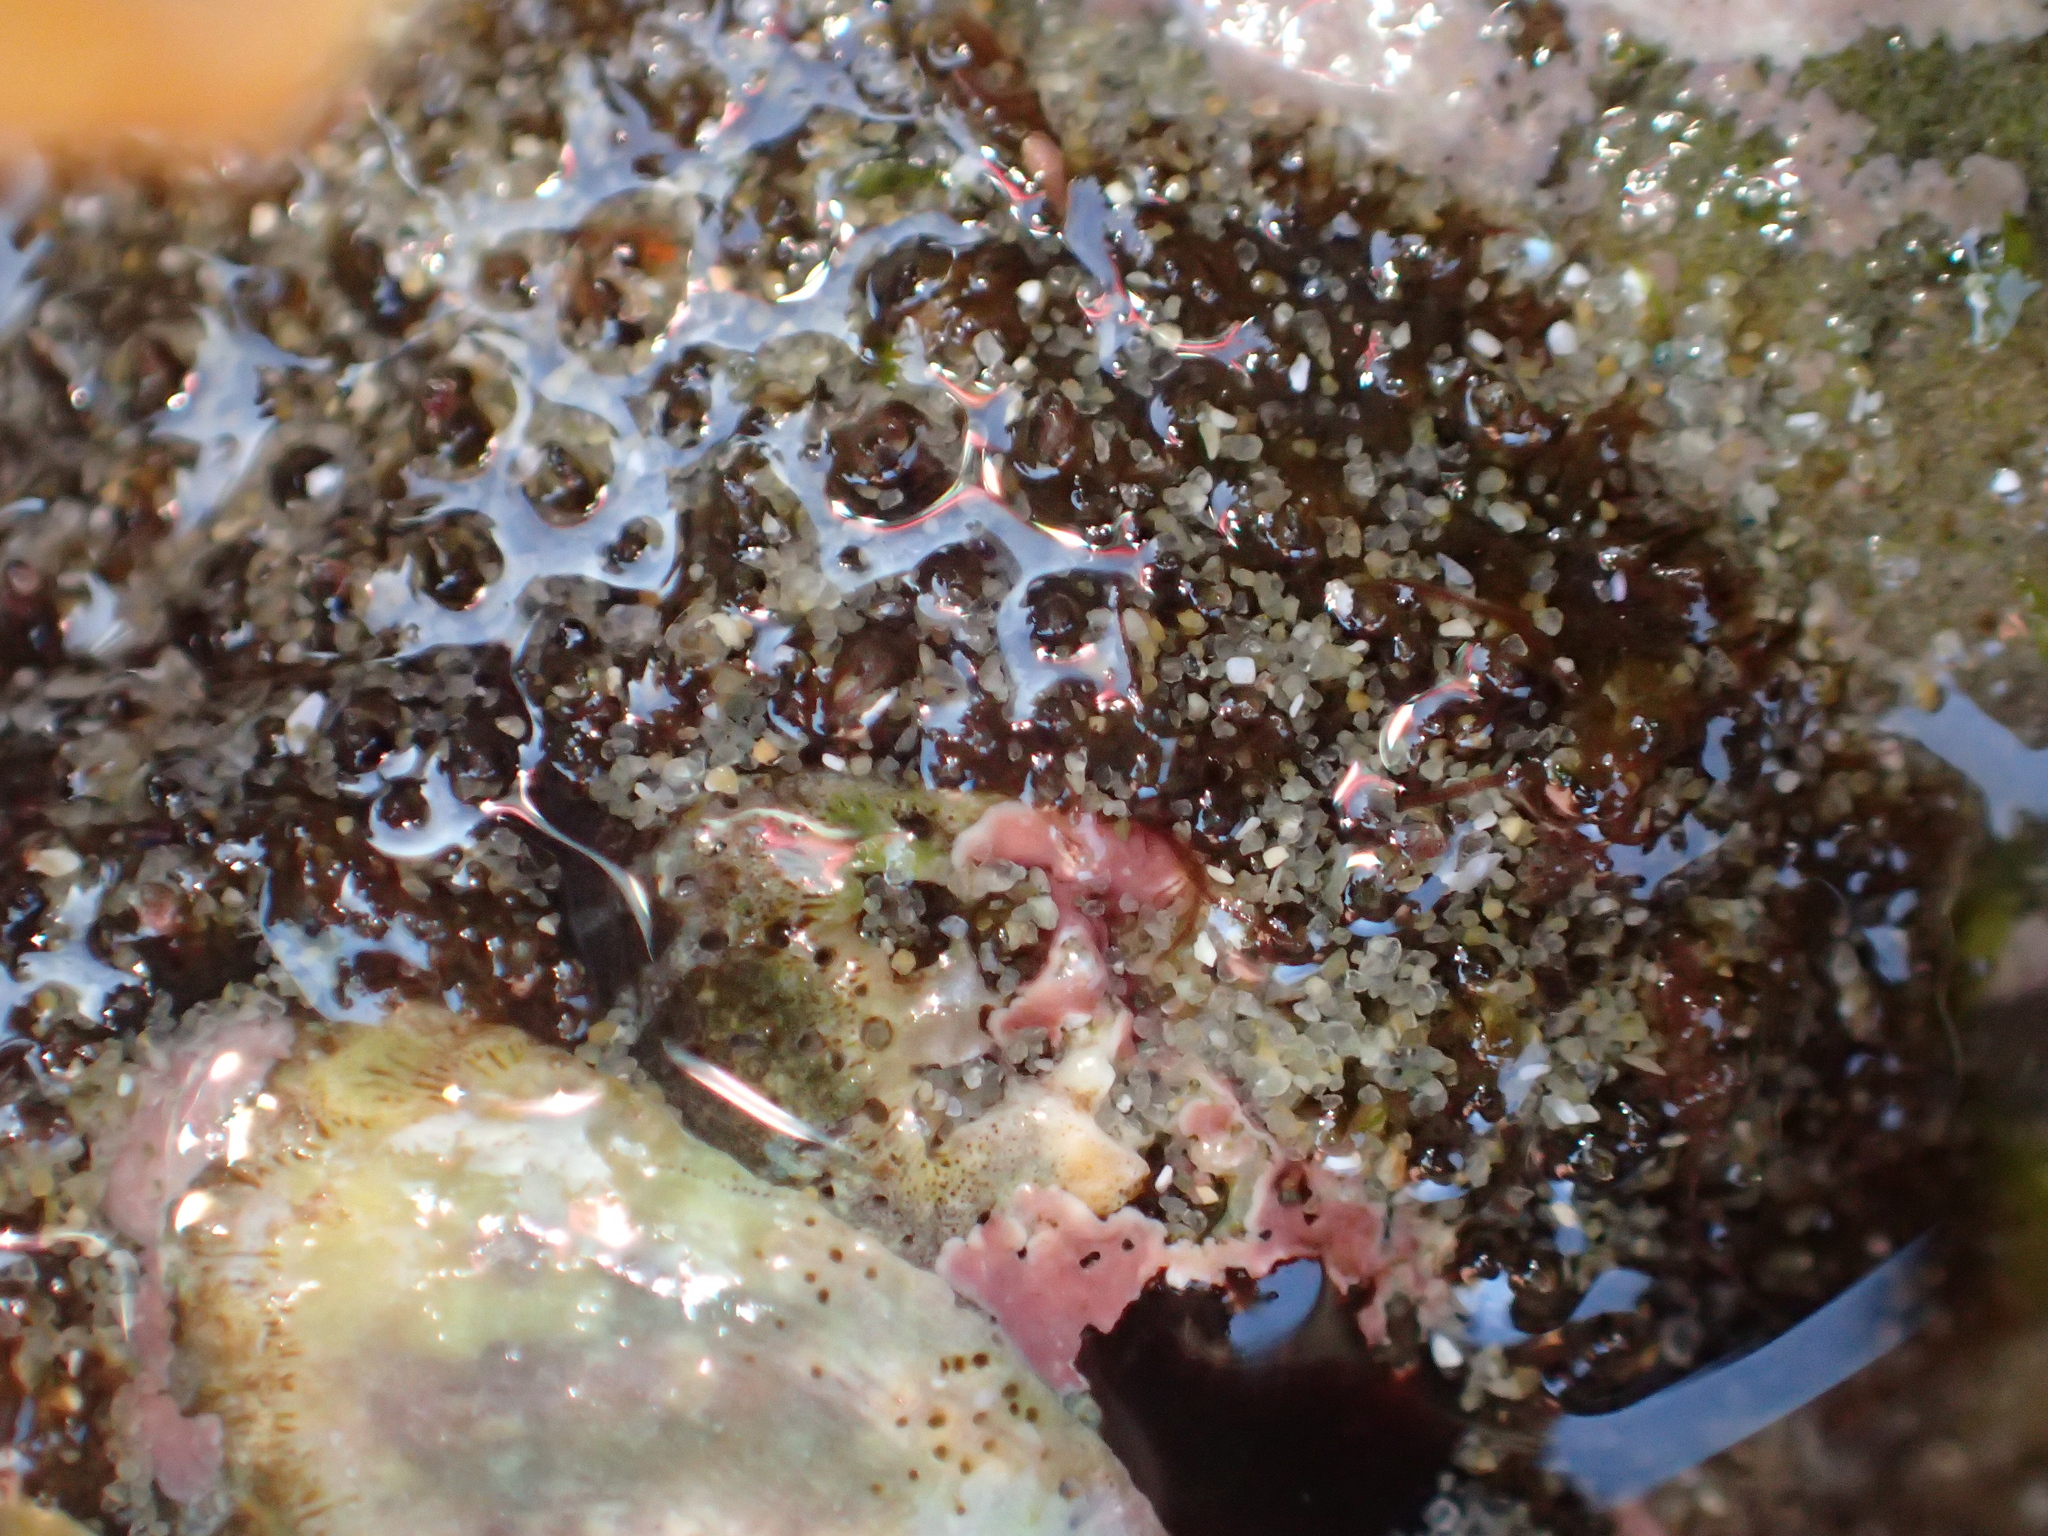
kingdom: Animalia
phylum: Mollusca
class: Polyplacophora
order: Chitonida
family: Mopaliidae
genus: Plaxiphora
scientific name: Plaxiphora obtecta
